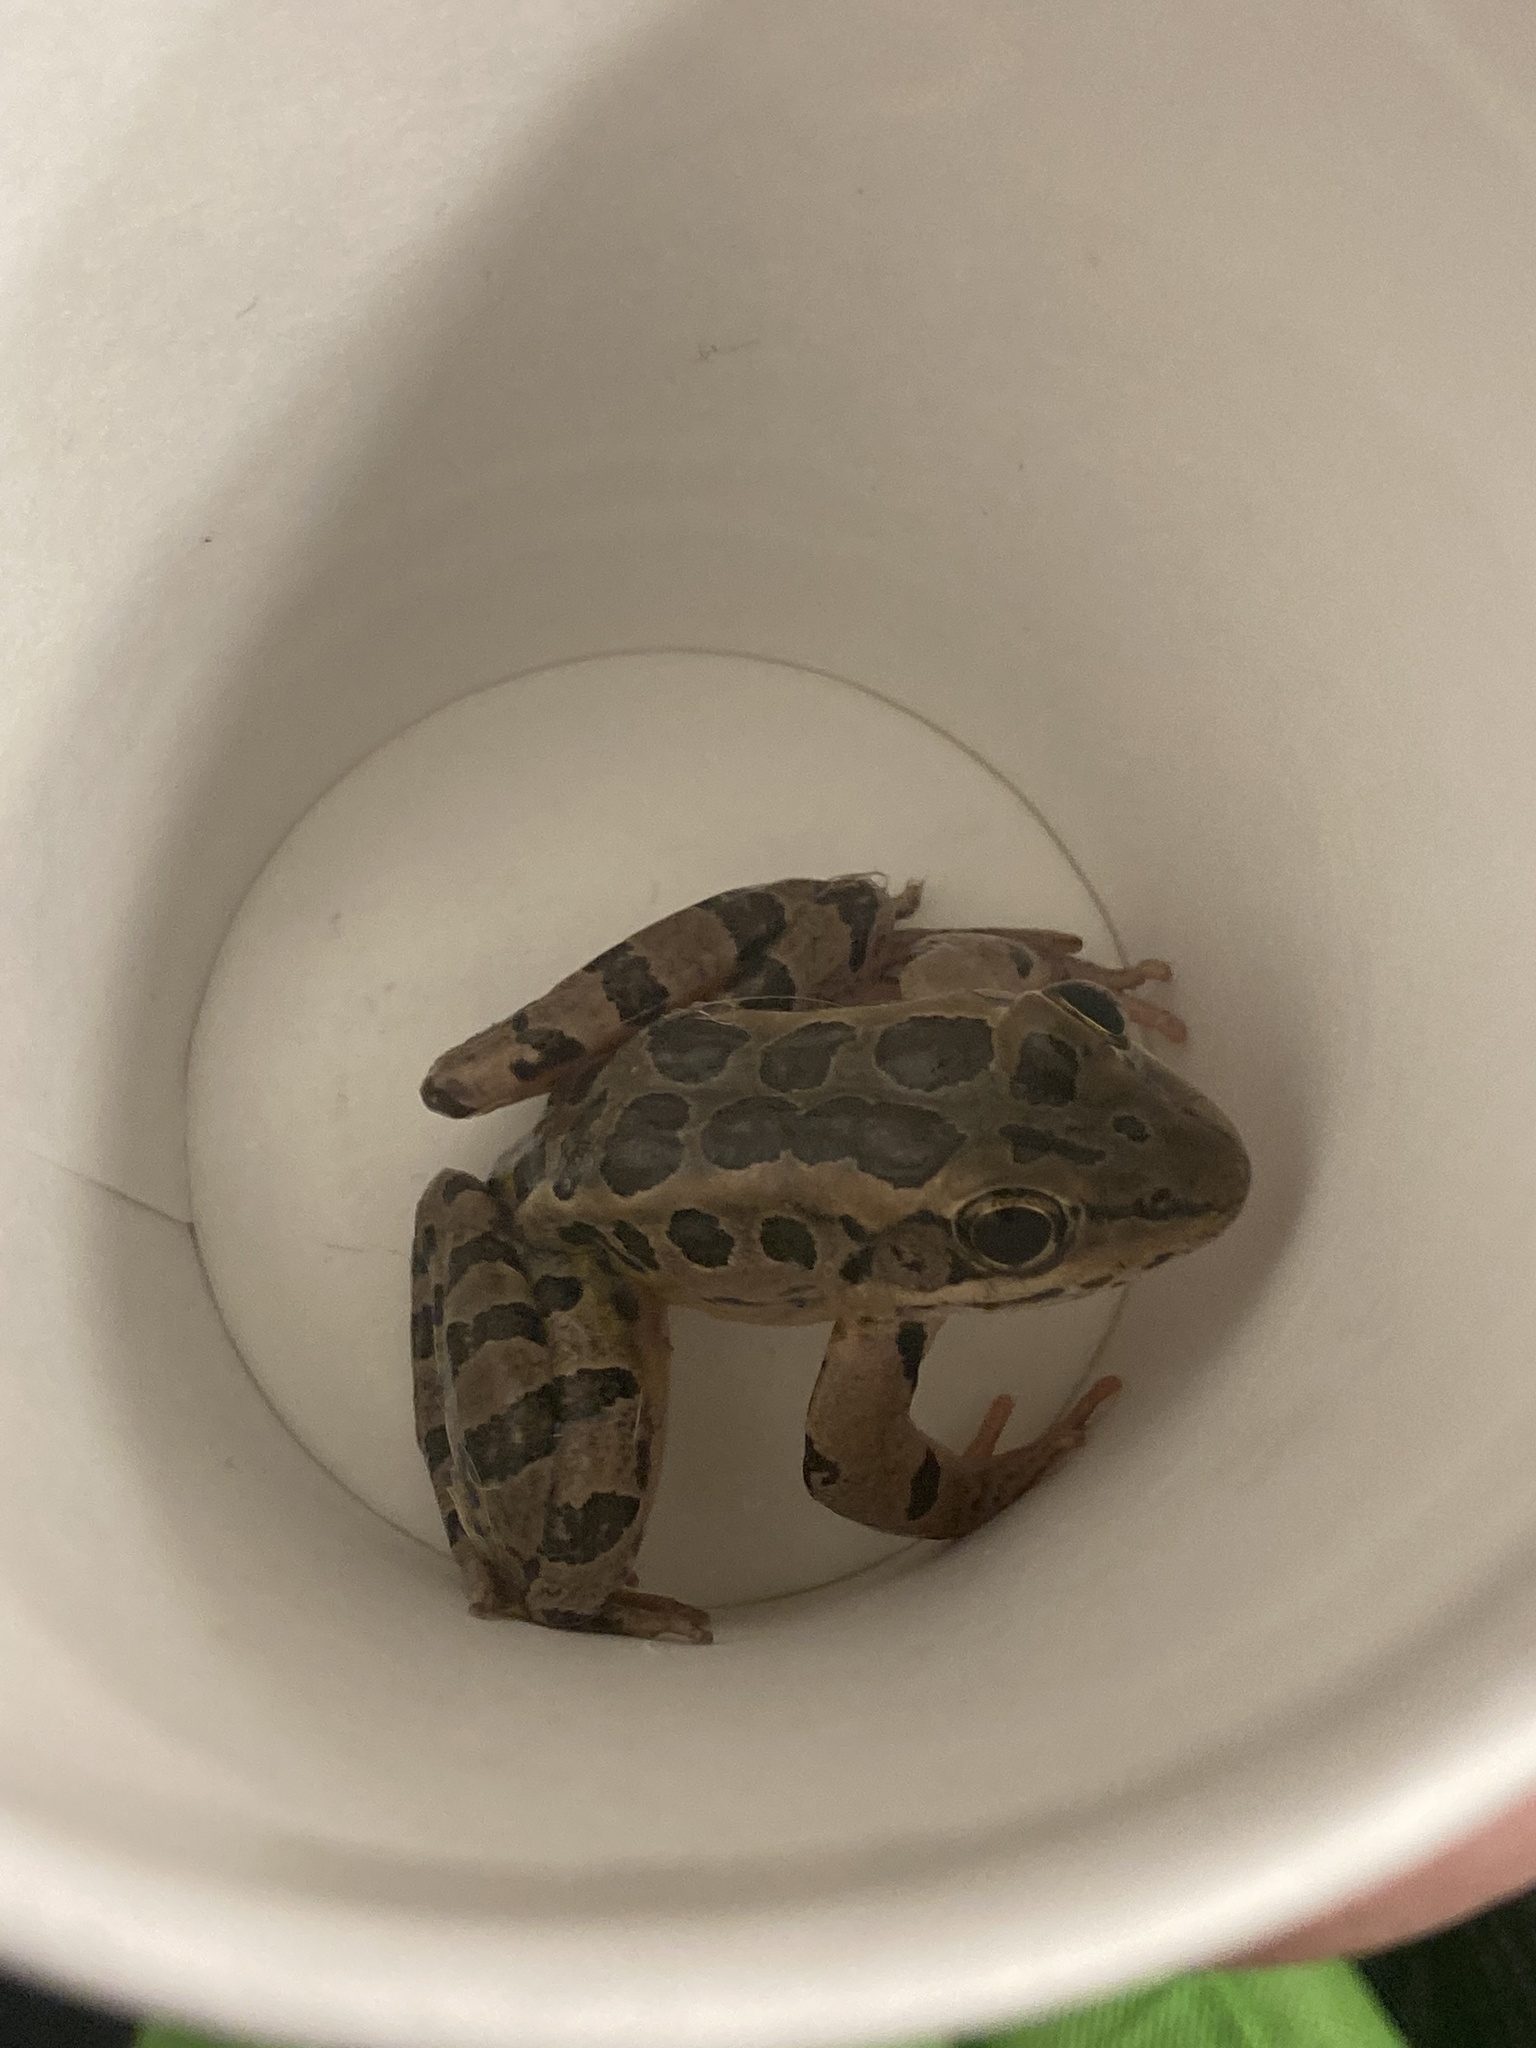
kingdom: Animalia
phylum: Chordata
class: Amphibia
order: Anura
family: Ranidae
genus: Lithobates
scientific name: Lithobates palustris
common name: Pickerel frog
